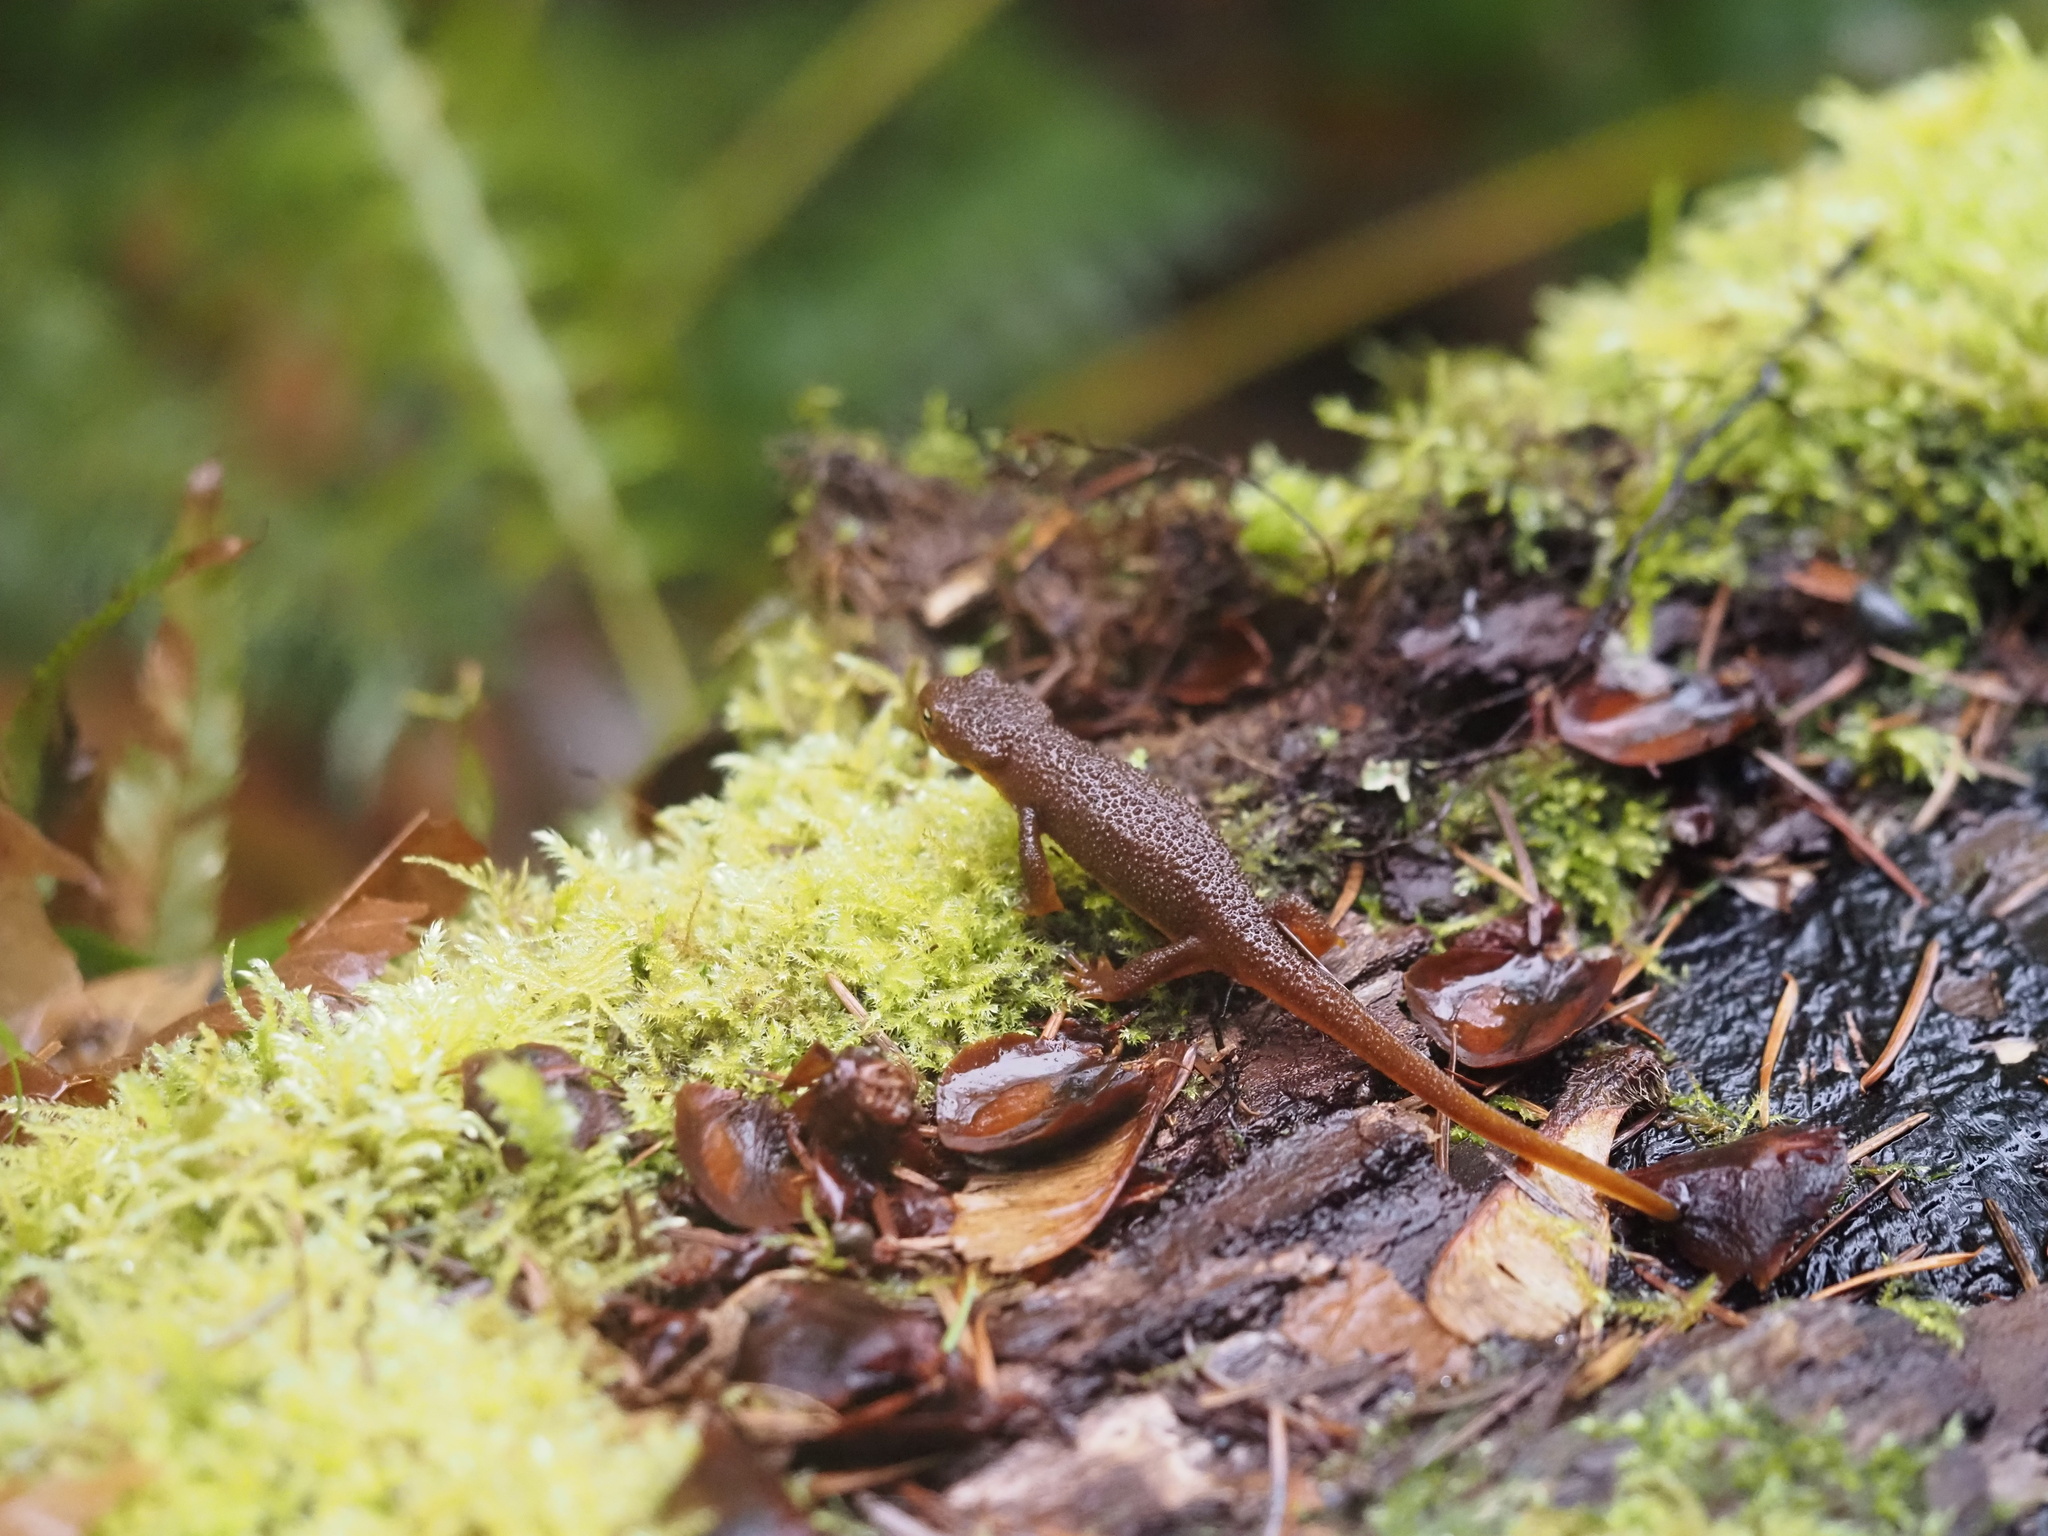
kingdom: Animalia
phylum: Chordata
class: Amphibia
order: Caudata
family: Salamandridae
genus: Taricha
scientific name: Taricha granulosa
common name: Roughskin newt
